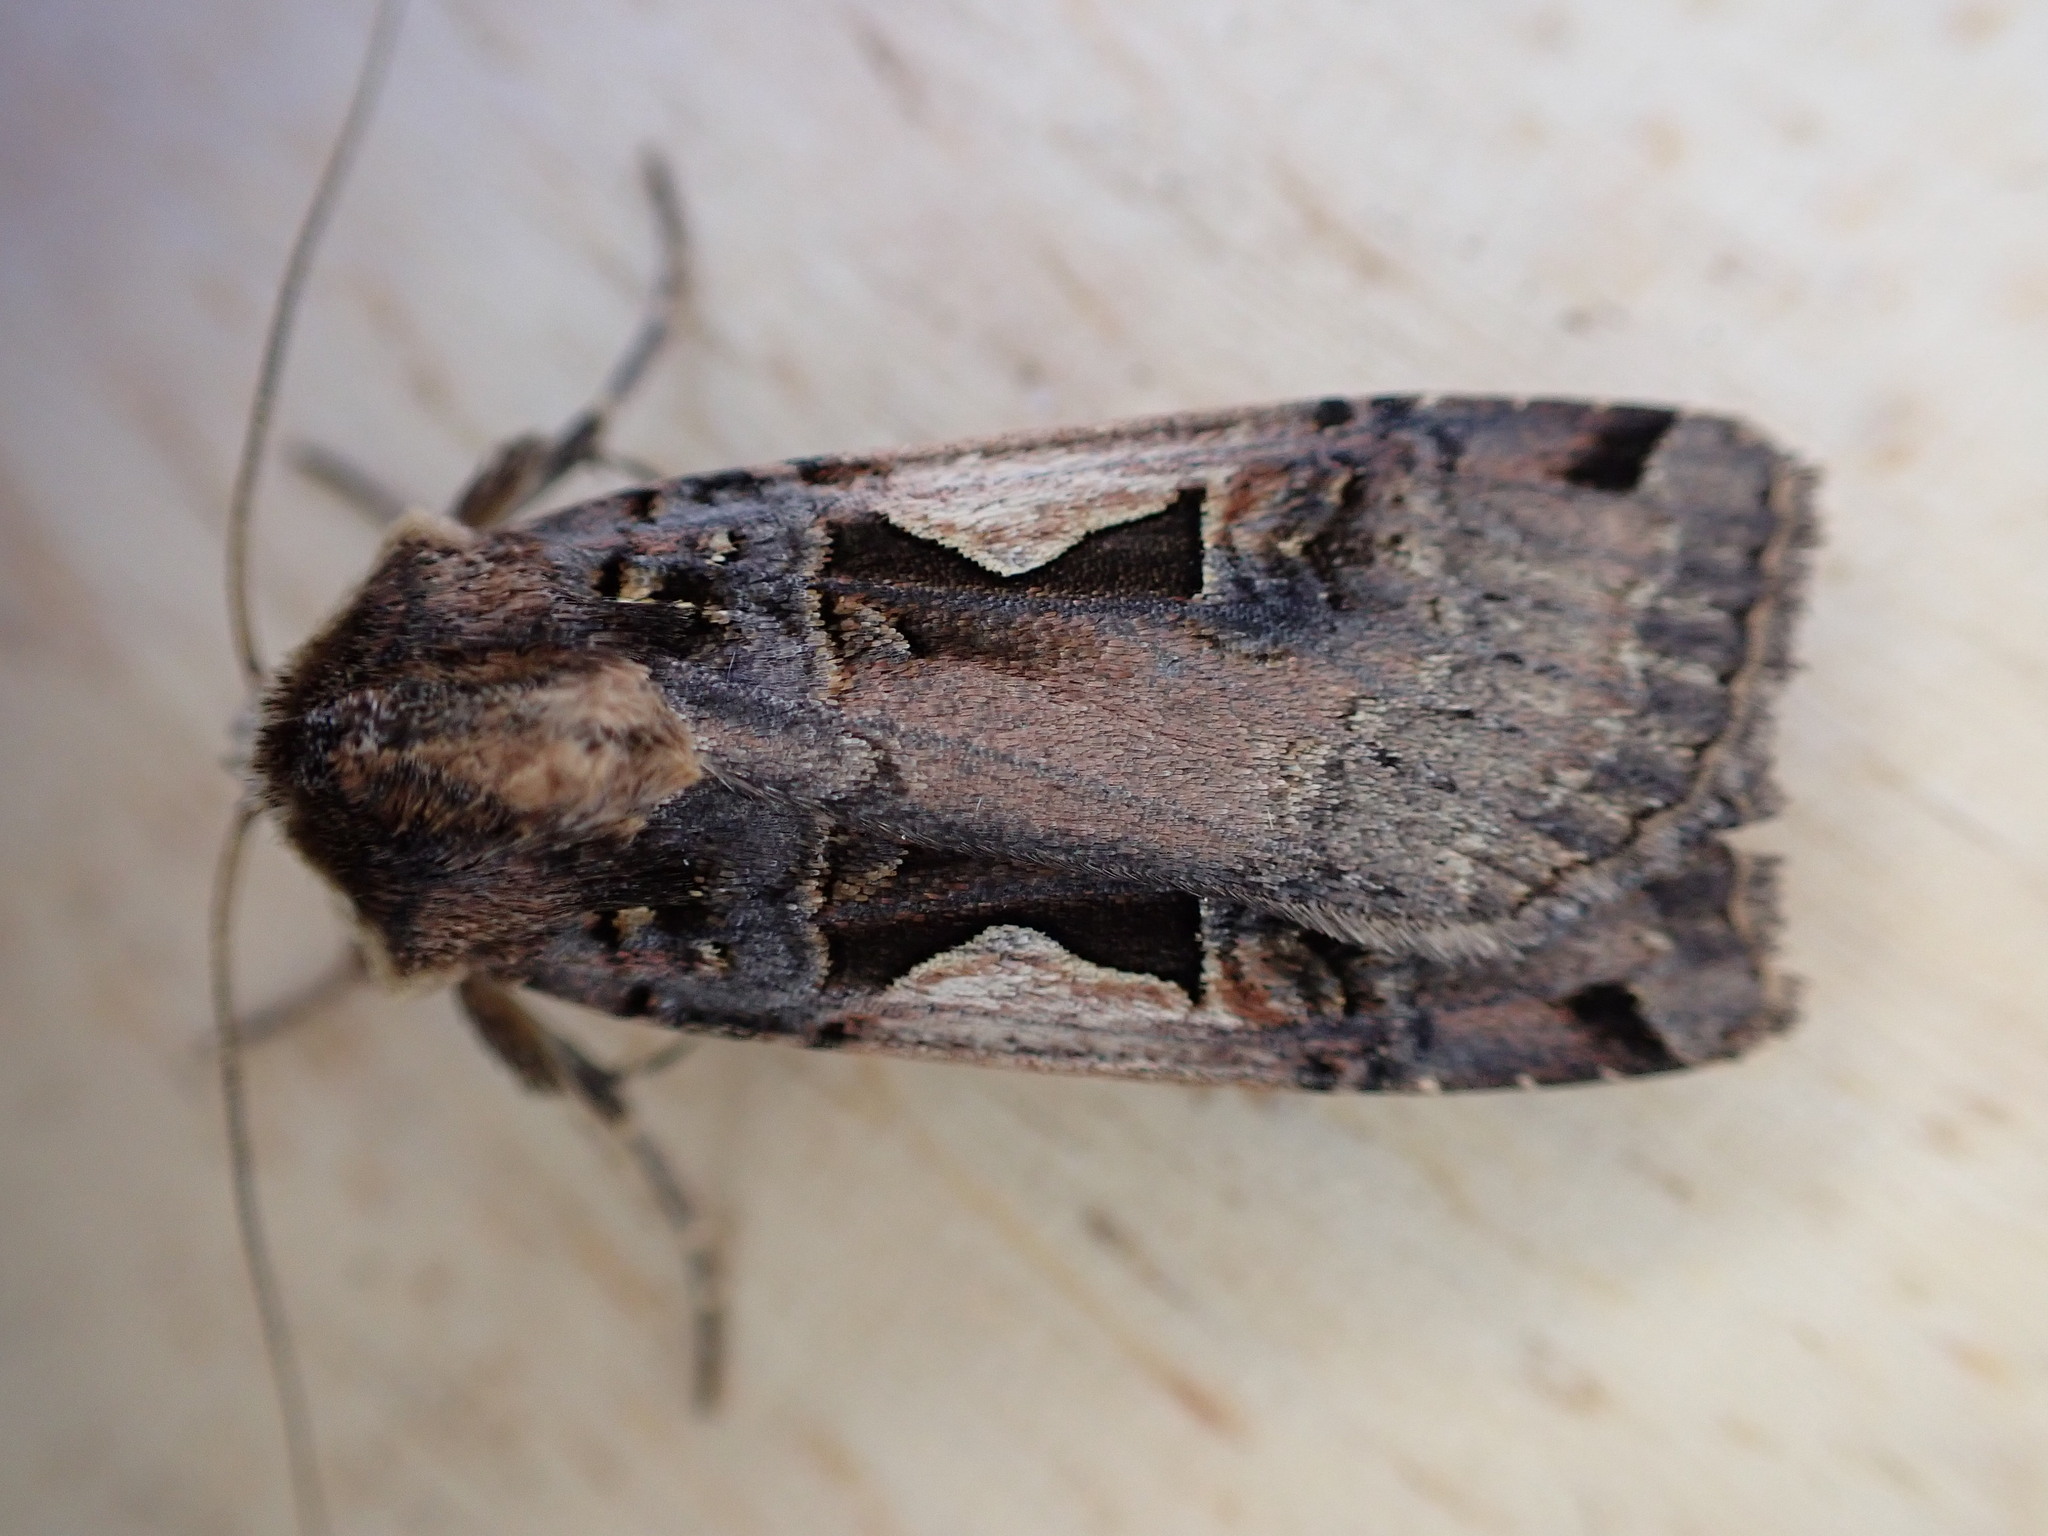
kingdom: Animalia
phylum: Arthropoda
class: Insecta
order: Lepidoptera
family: Noctuidae
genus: Xestia
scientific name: Xestia c-nigrum
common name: Setaceous hebrew character
